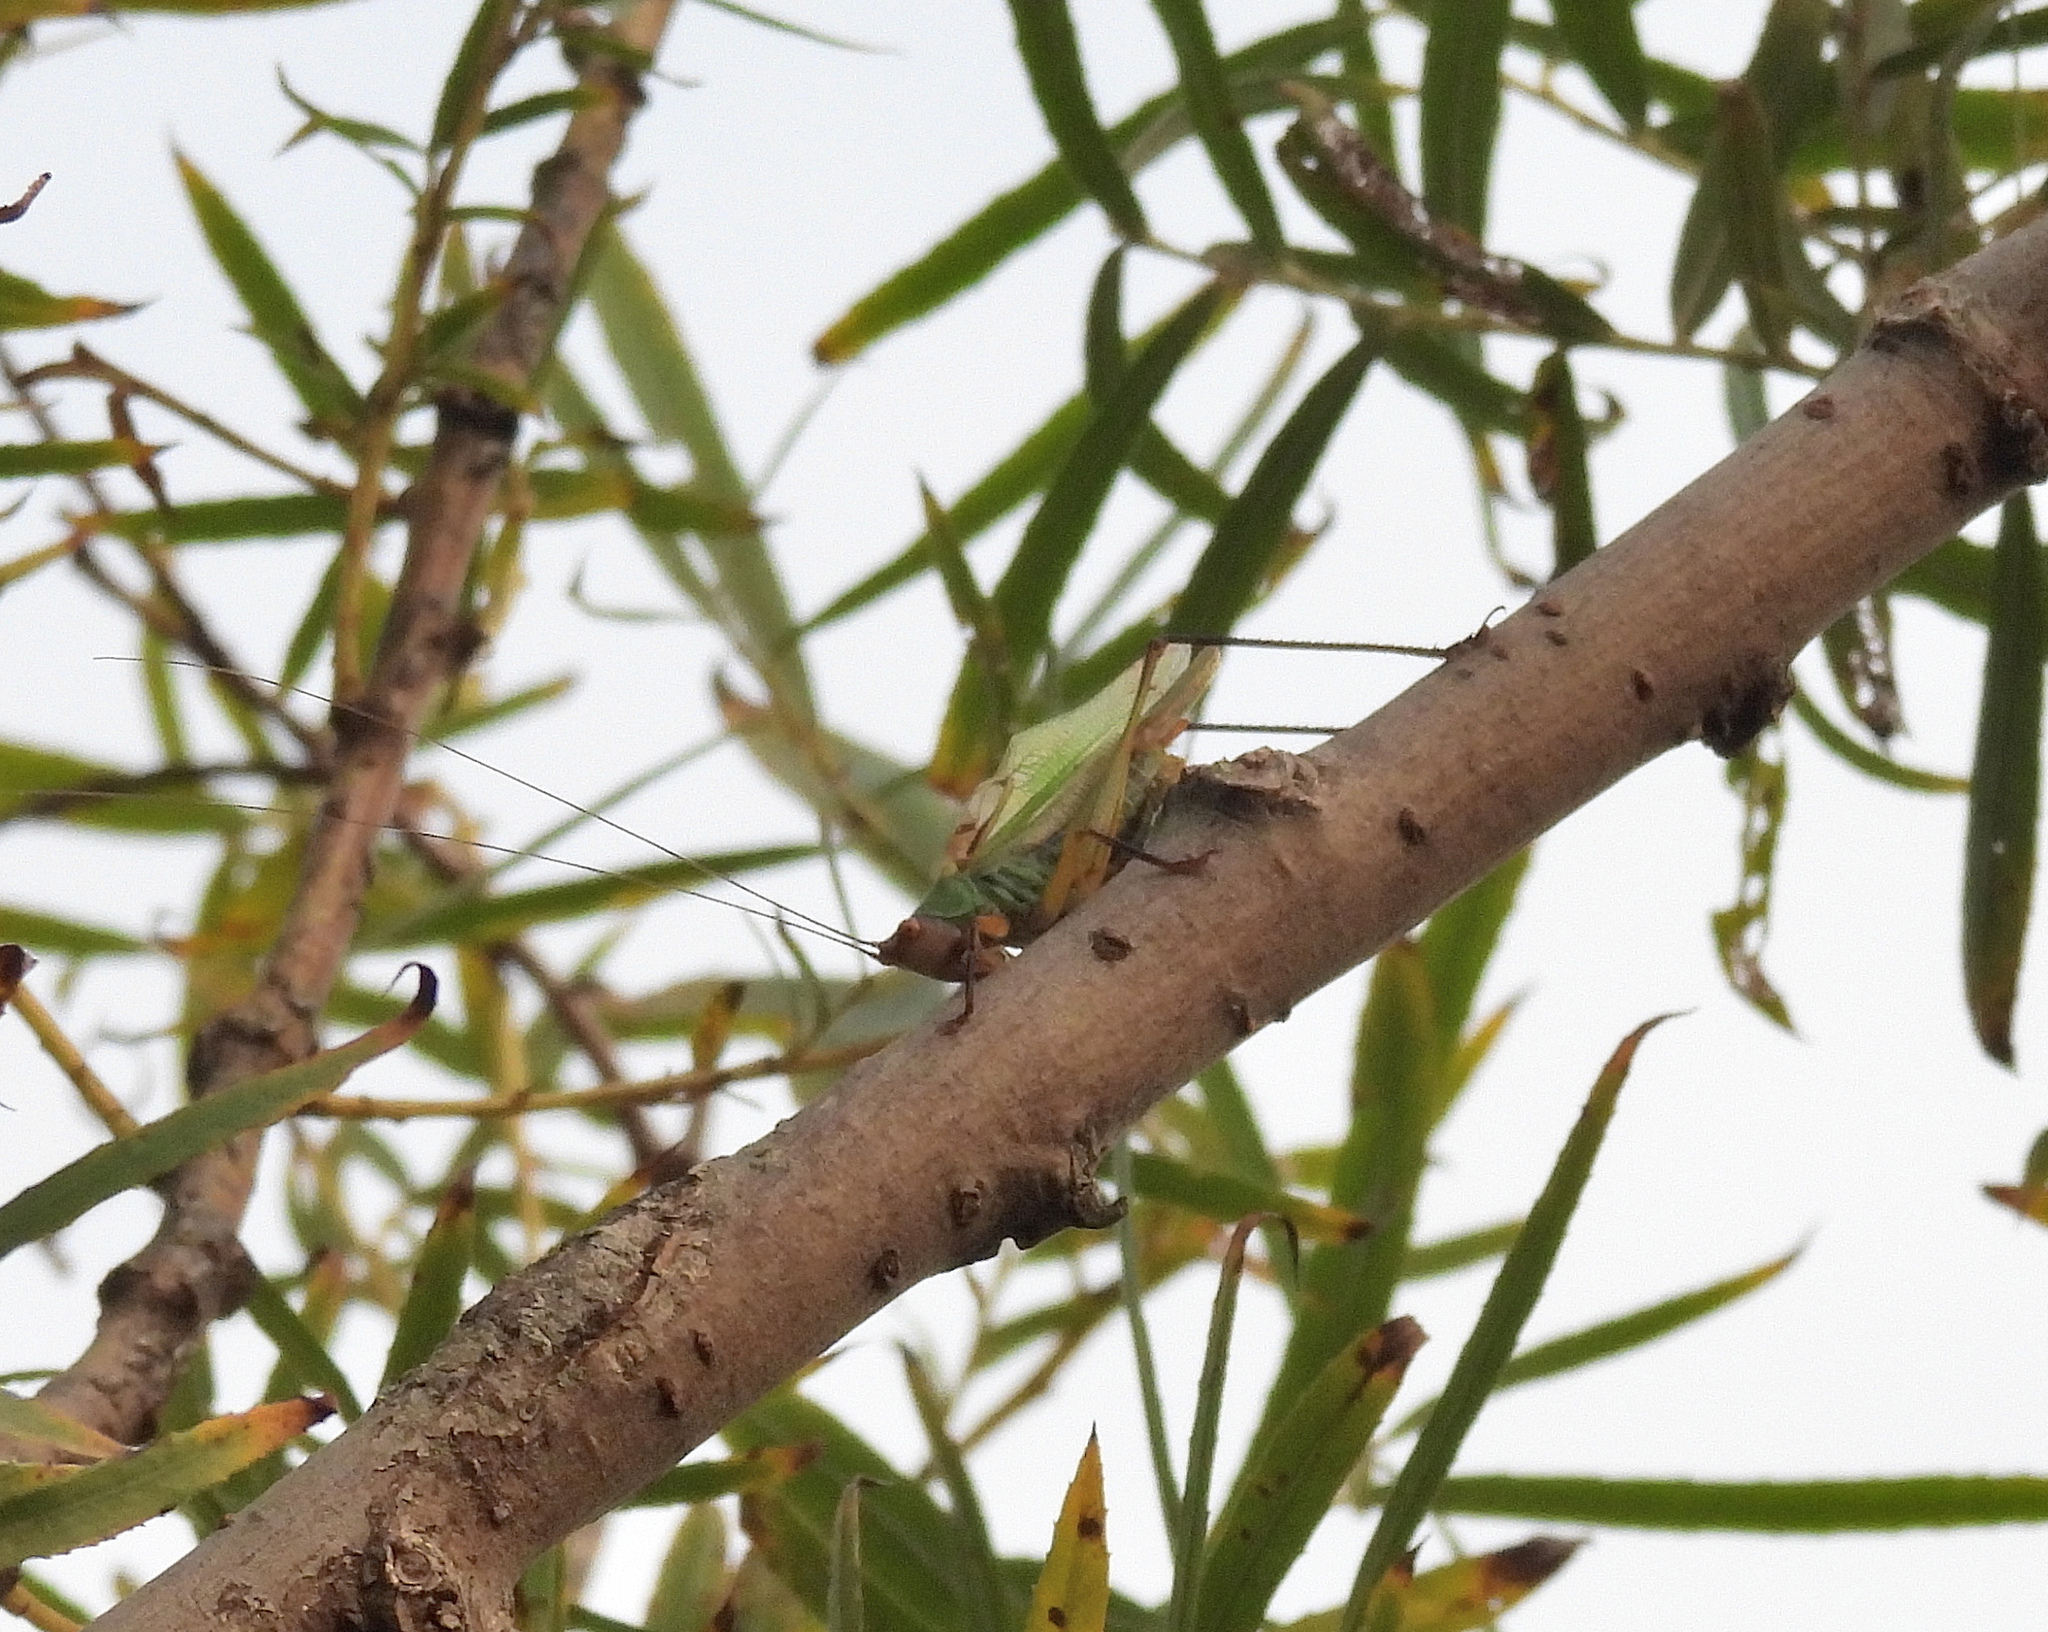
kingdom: Animalia
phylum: Arthropoda
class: Insecta
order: Orthoptera
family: Tettigoniidae
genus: Orchelimum
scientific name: Orchelimum nigripes
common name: Black-legged meadow katydid
